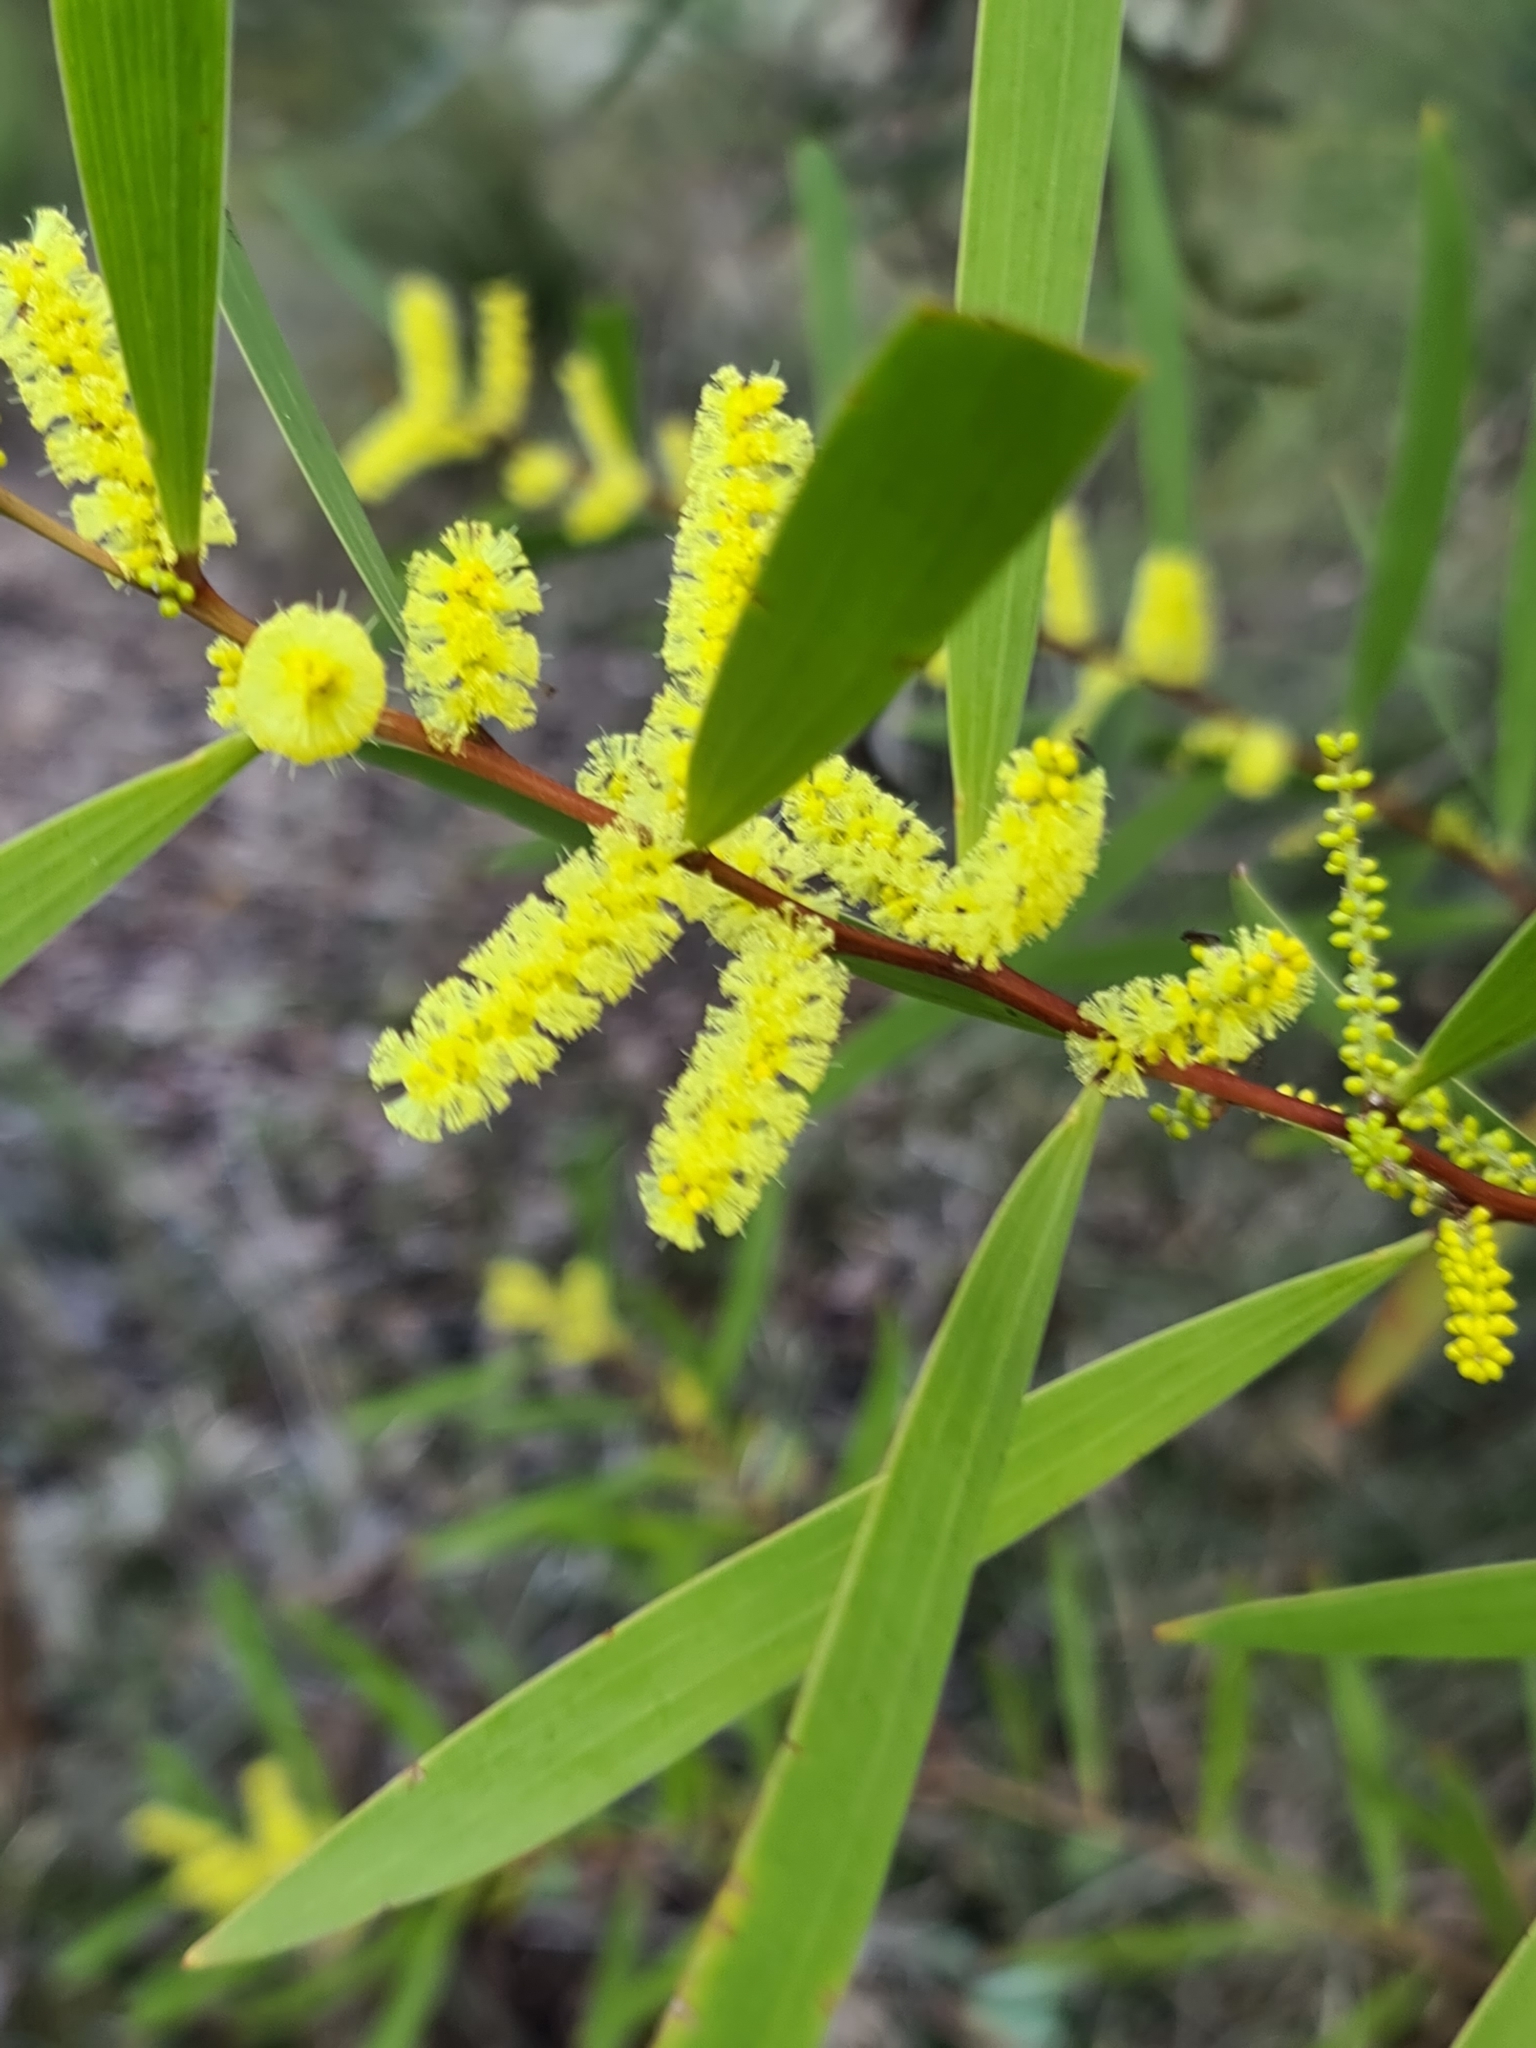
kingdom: Plantae
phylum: Tracheophyta
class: Magnoliopsida
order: Fabales
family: Fabaceae
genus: Acacia
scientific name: Acacia longifolia
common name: Sydney golden wattle
